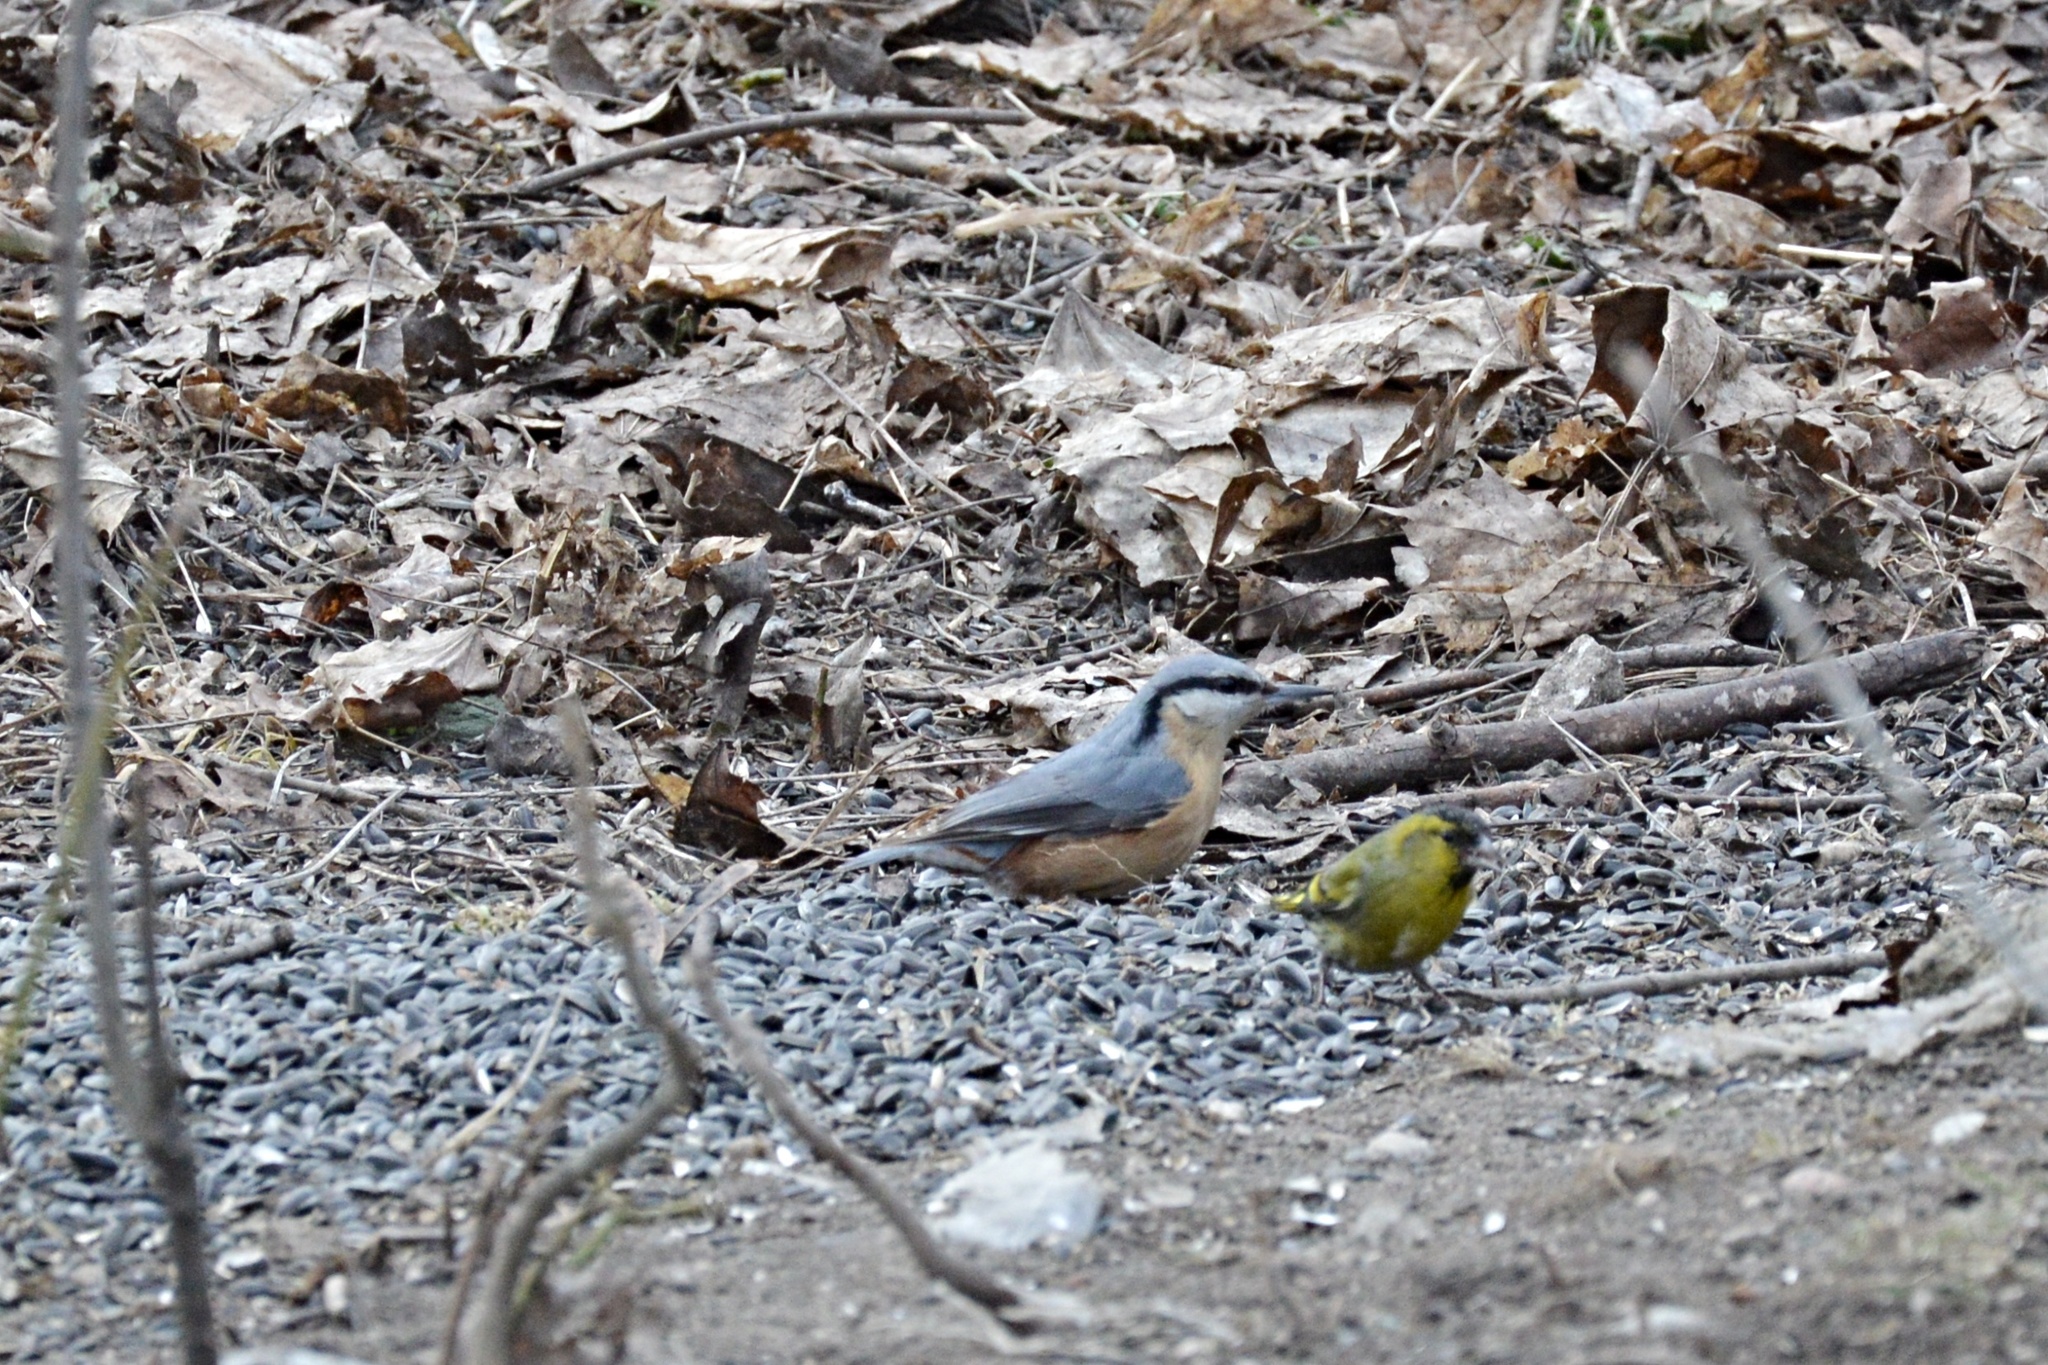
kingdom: Animalia
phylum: Chordata
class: Aves
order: Passeriformes
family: Sittidae
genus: Sitta
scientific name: Sitta europaea
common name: Eurasian nuthatch
